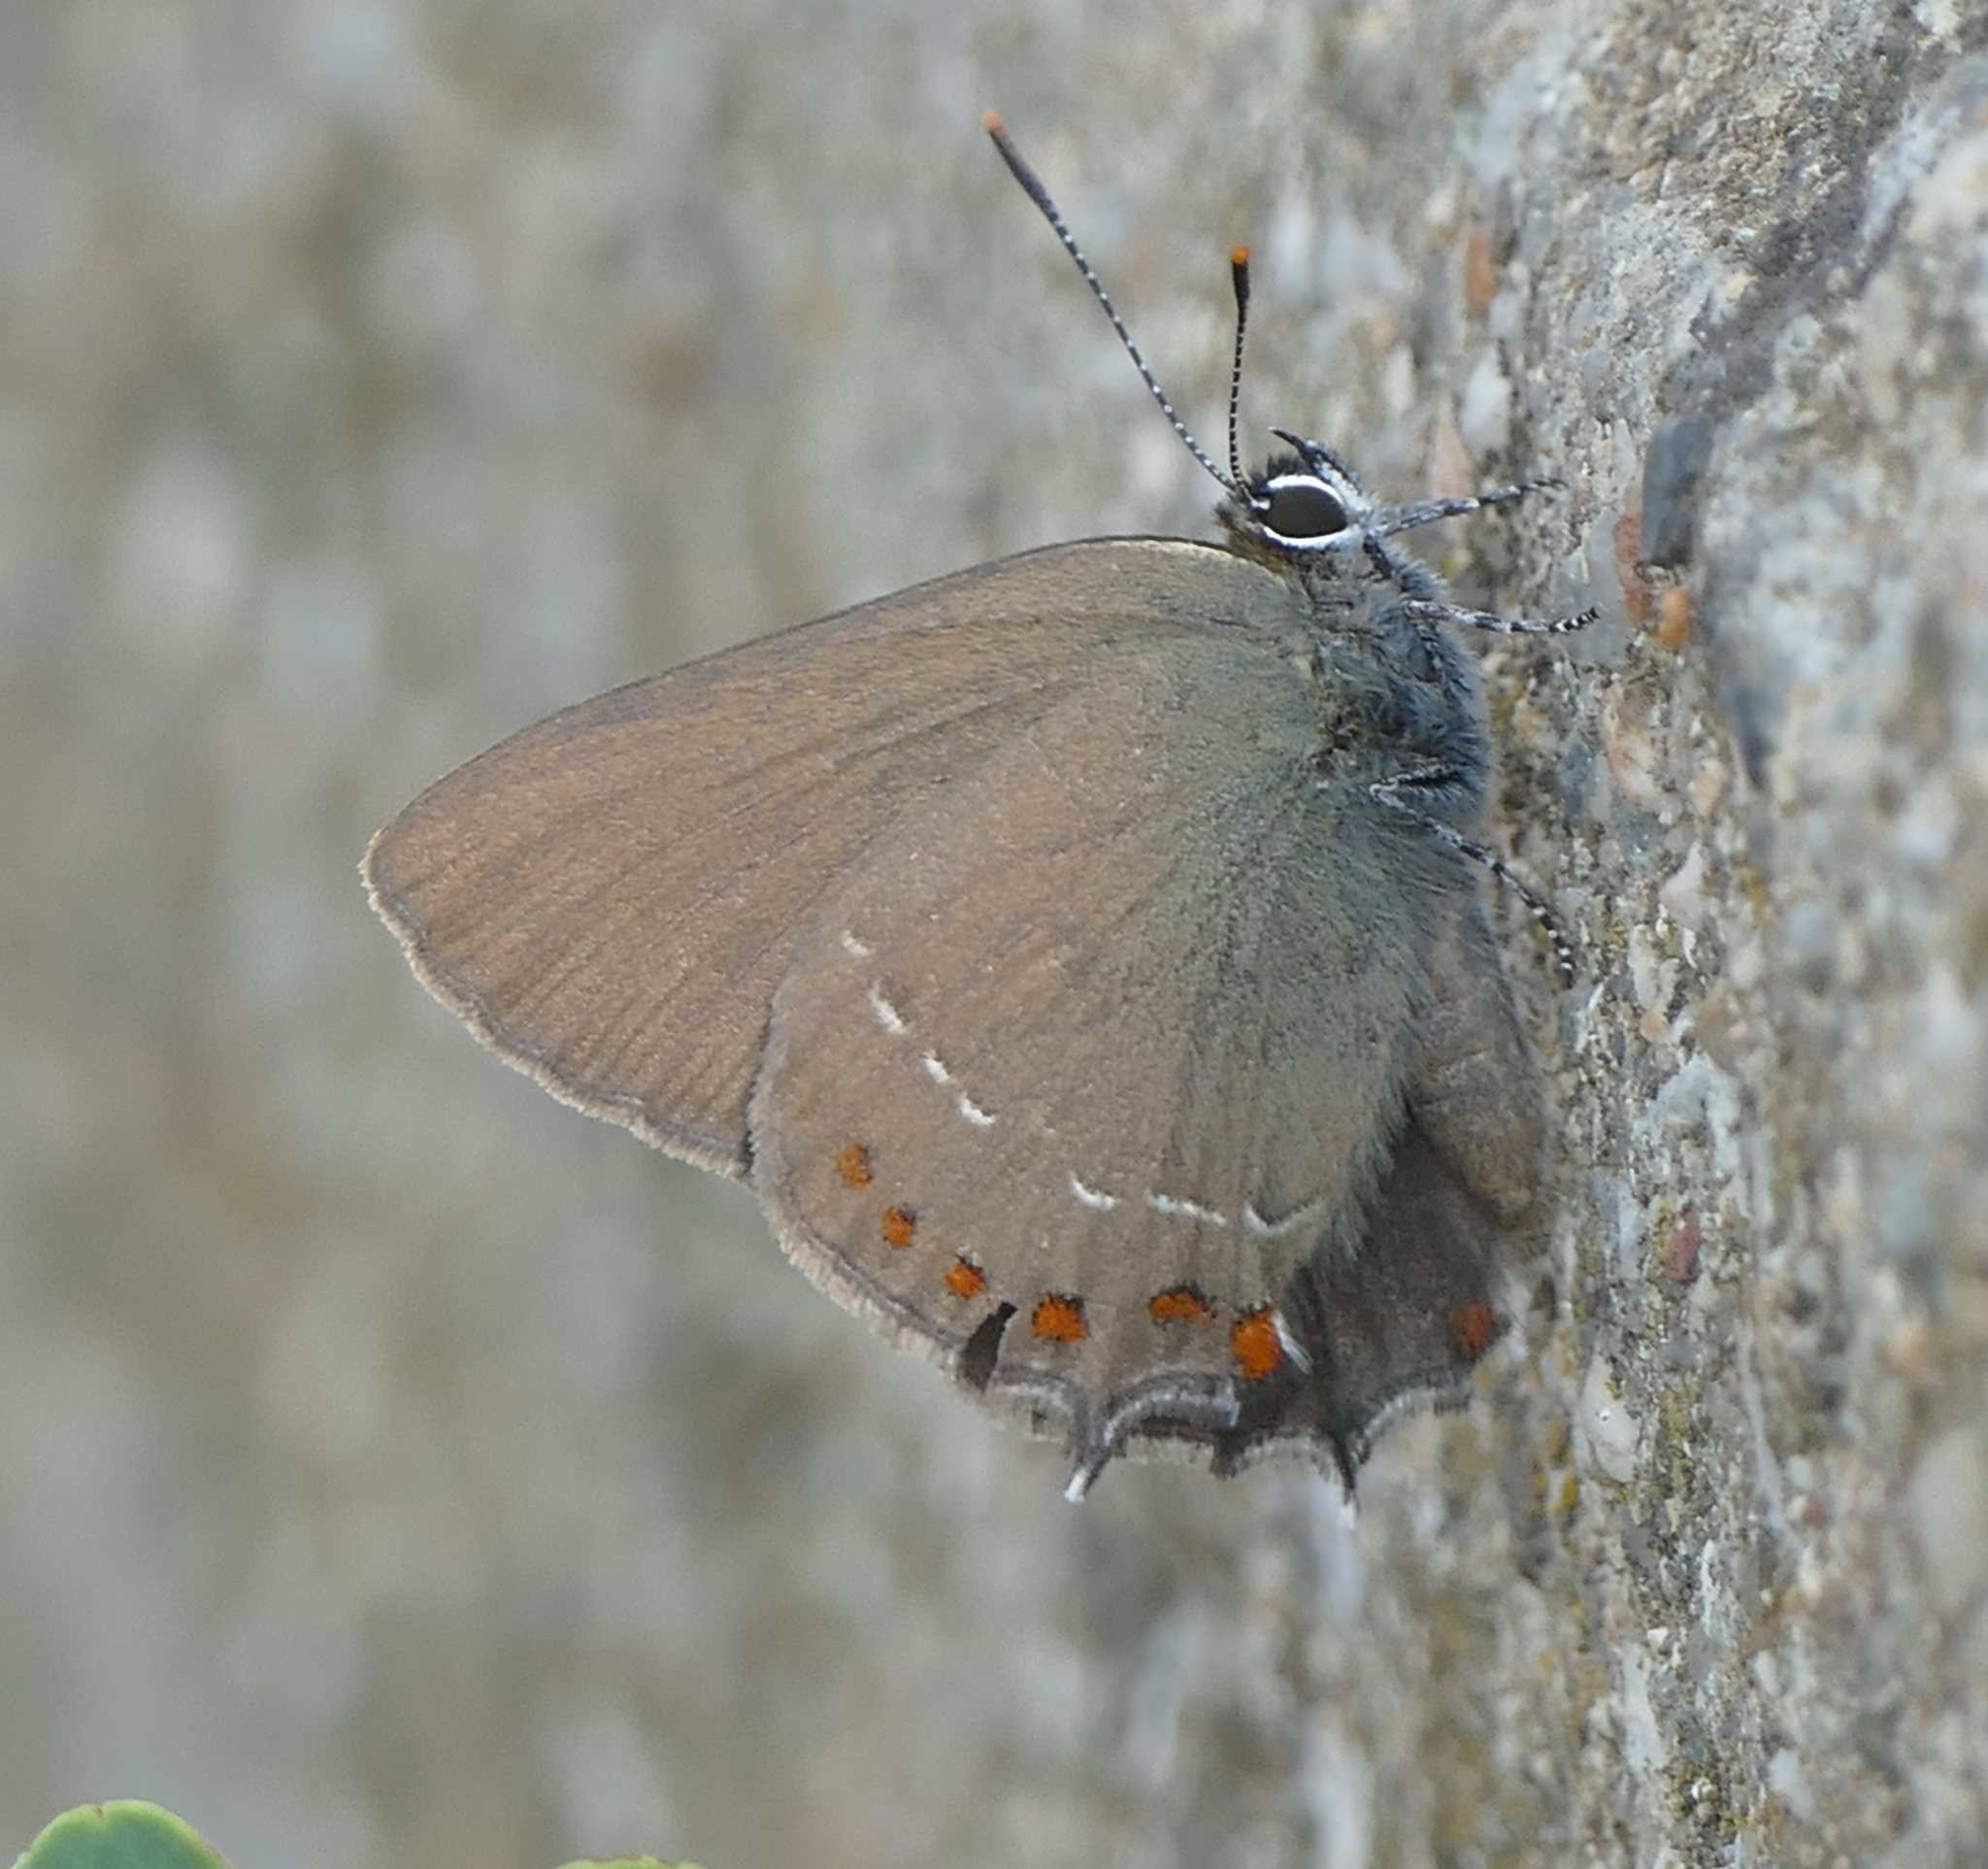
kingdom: Animalia
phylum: Arthropoda
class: Insecta
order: Lepidoptera
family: Lycaenidae
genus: Fixsenia
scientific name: Fixsenia esculi
